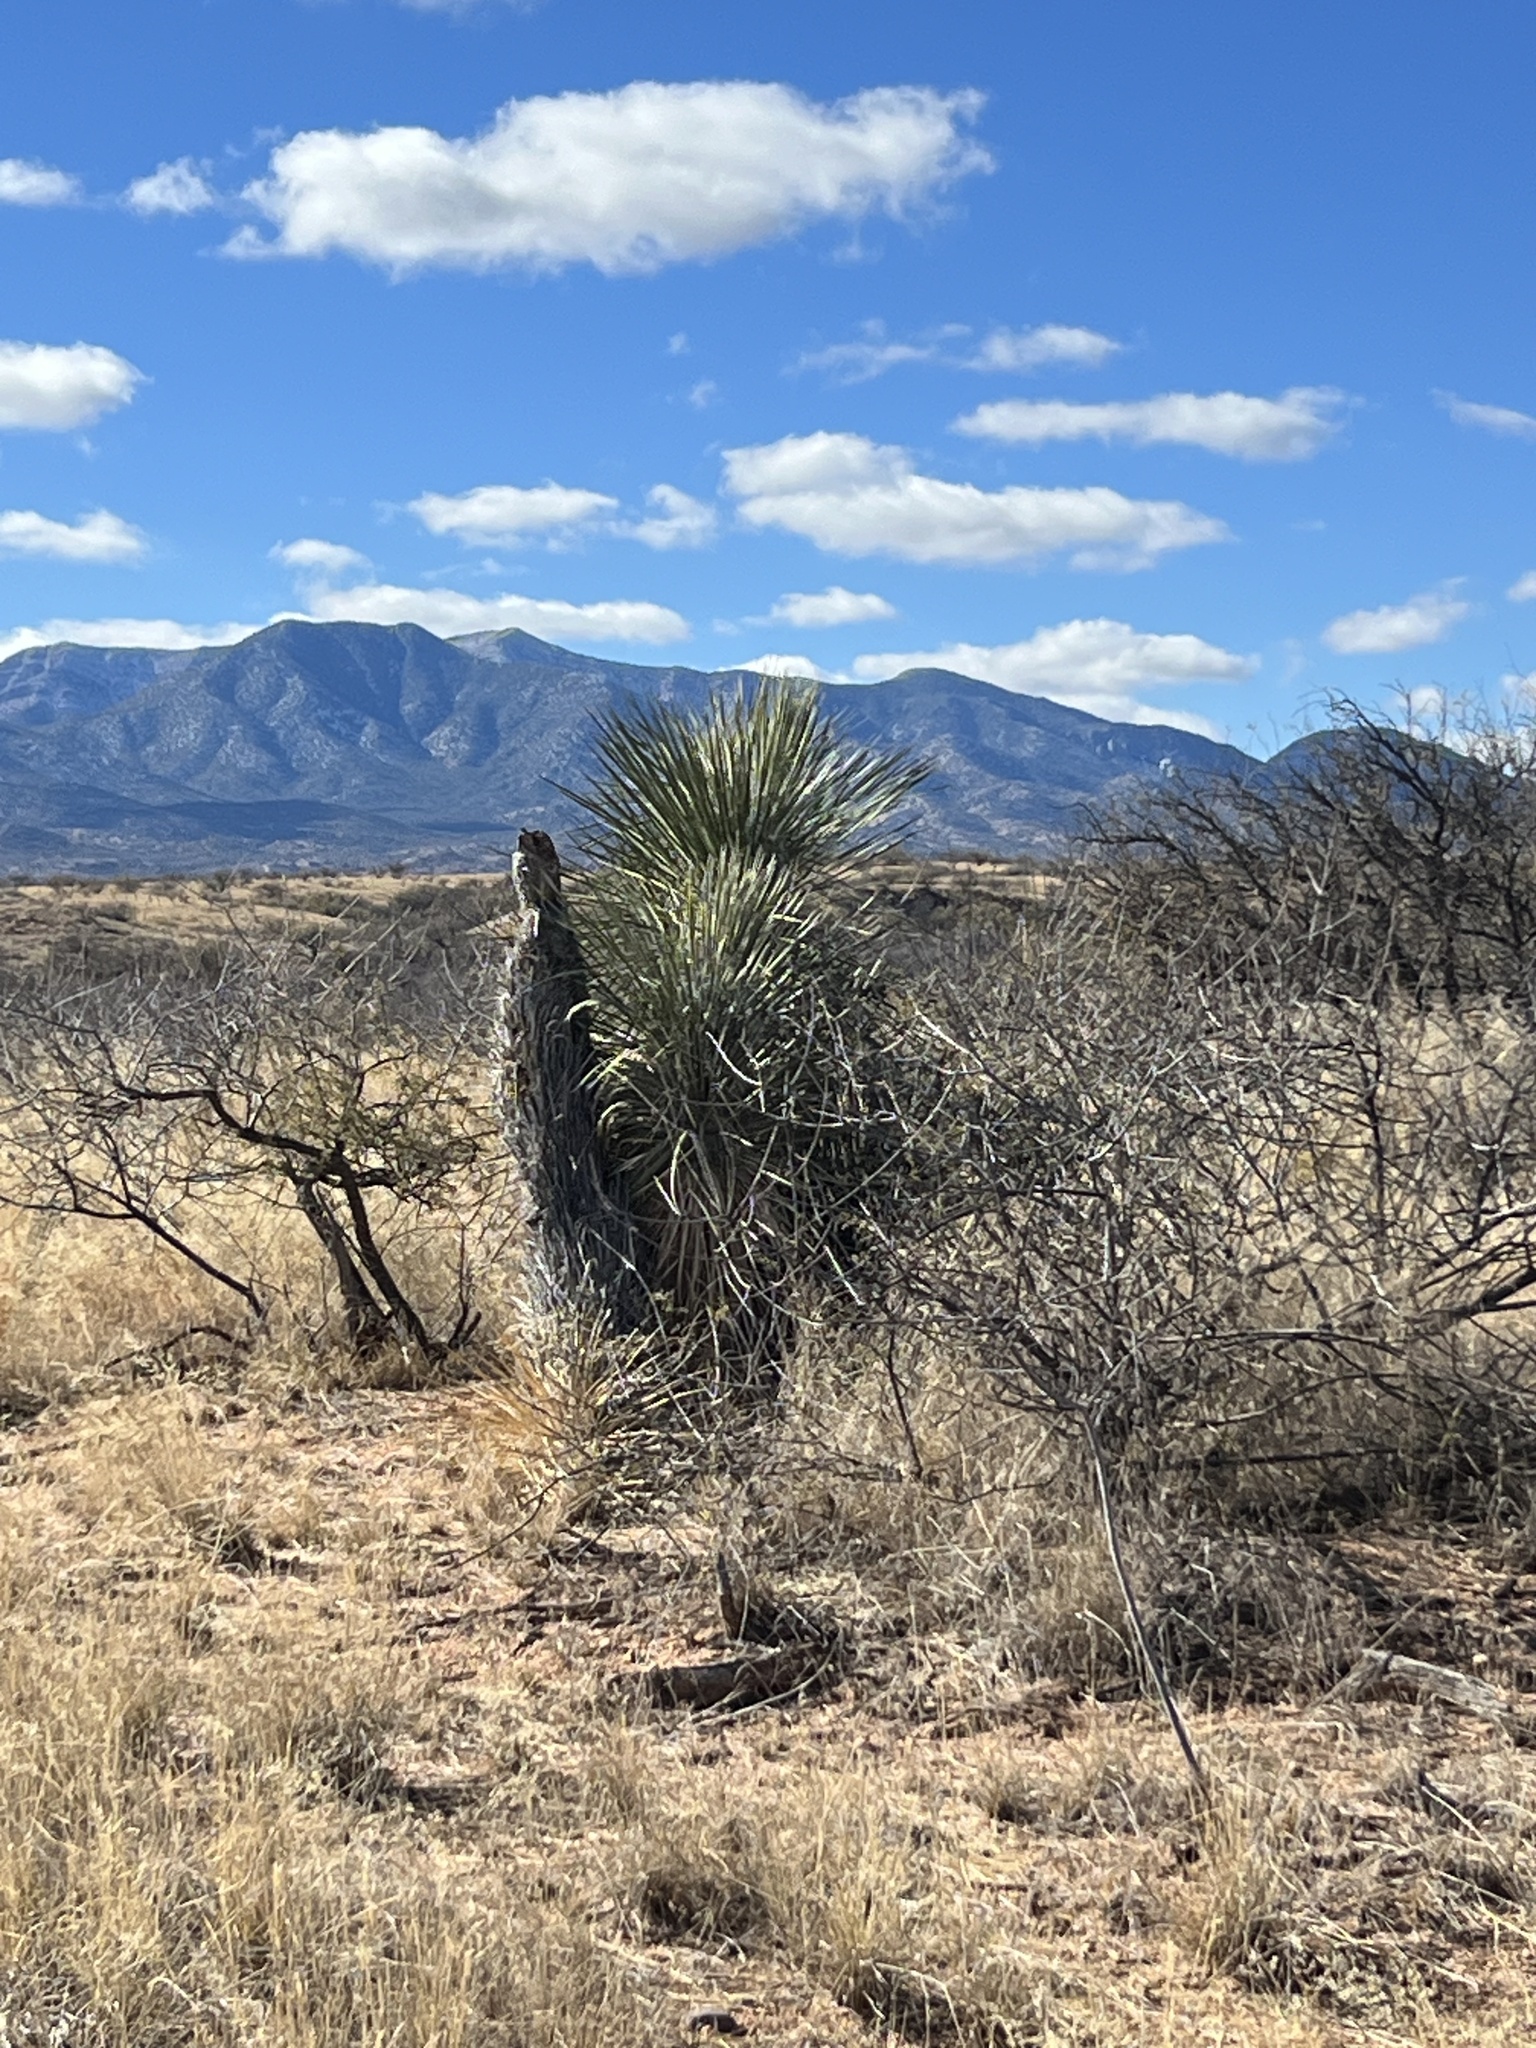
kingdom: Plantae
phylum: Tracheophyta
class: Liliopsida
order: Asparagales
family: Asparagaceae
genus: Yucca
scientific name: Yucca elata
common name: Palmella
